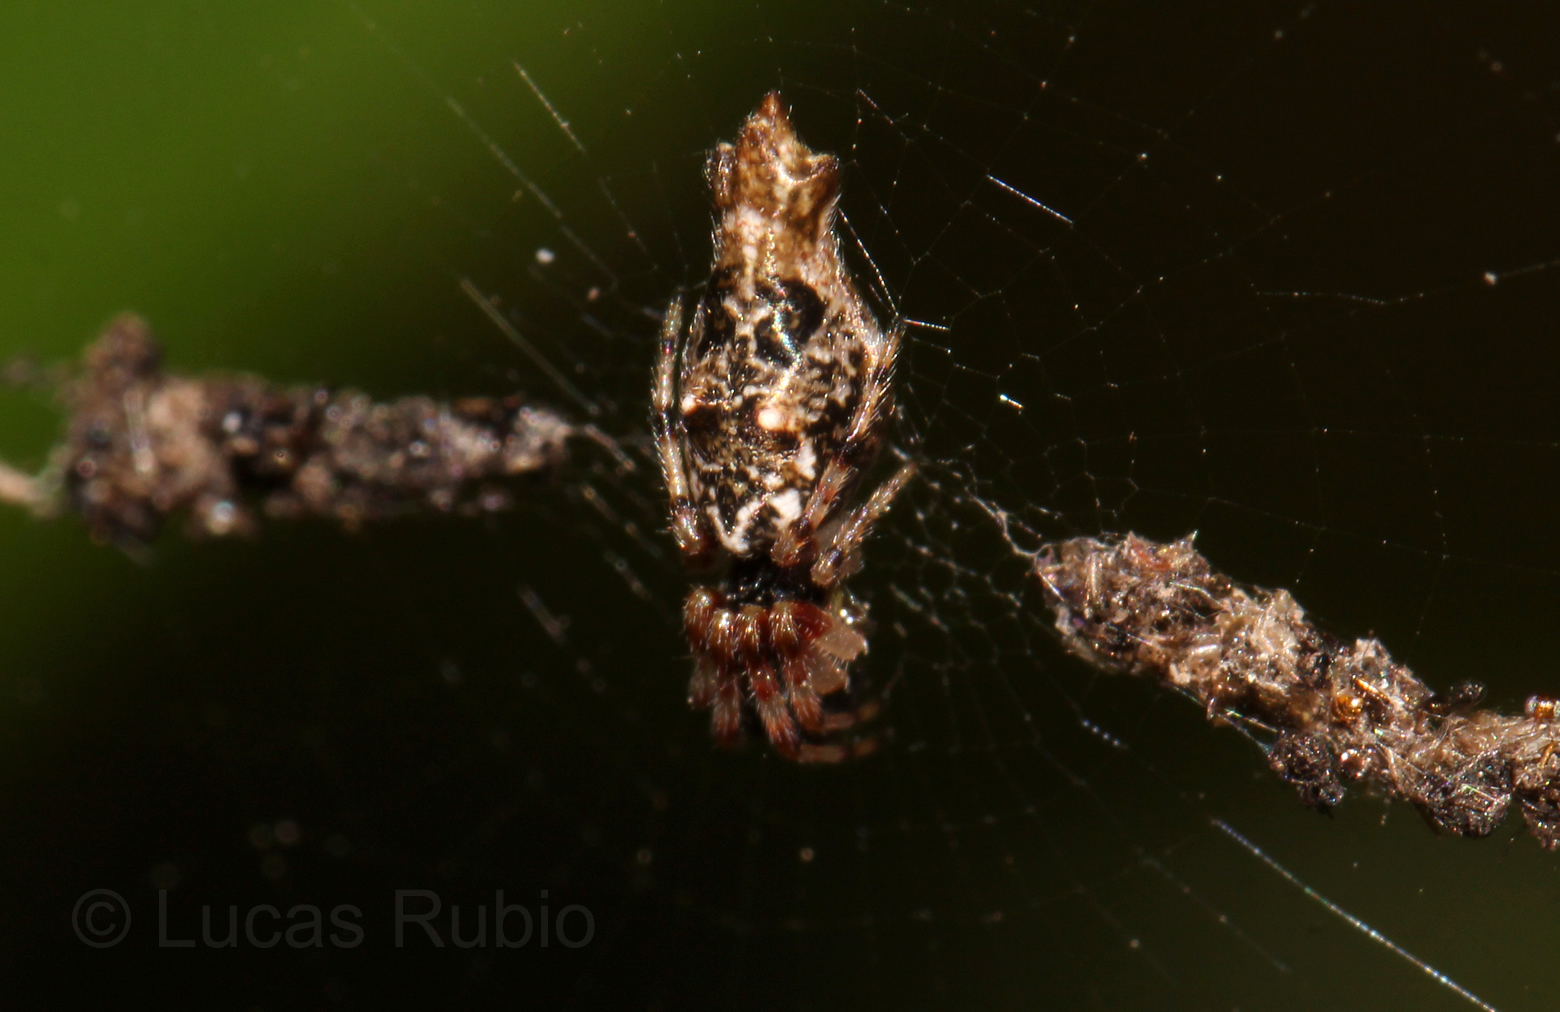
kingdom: Animalia
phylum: Arthropoda
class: Arachnida
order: Araneae
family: Araneidae
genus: Cyclosa
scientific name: Cyclosa serena
